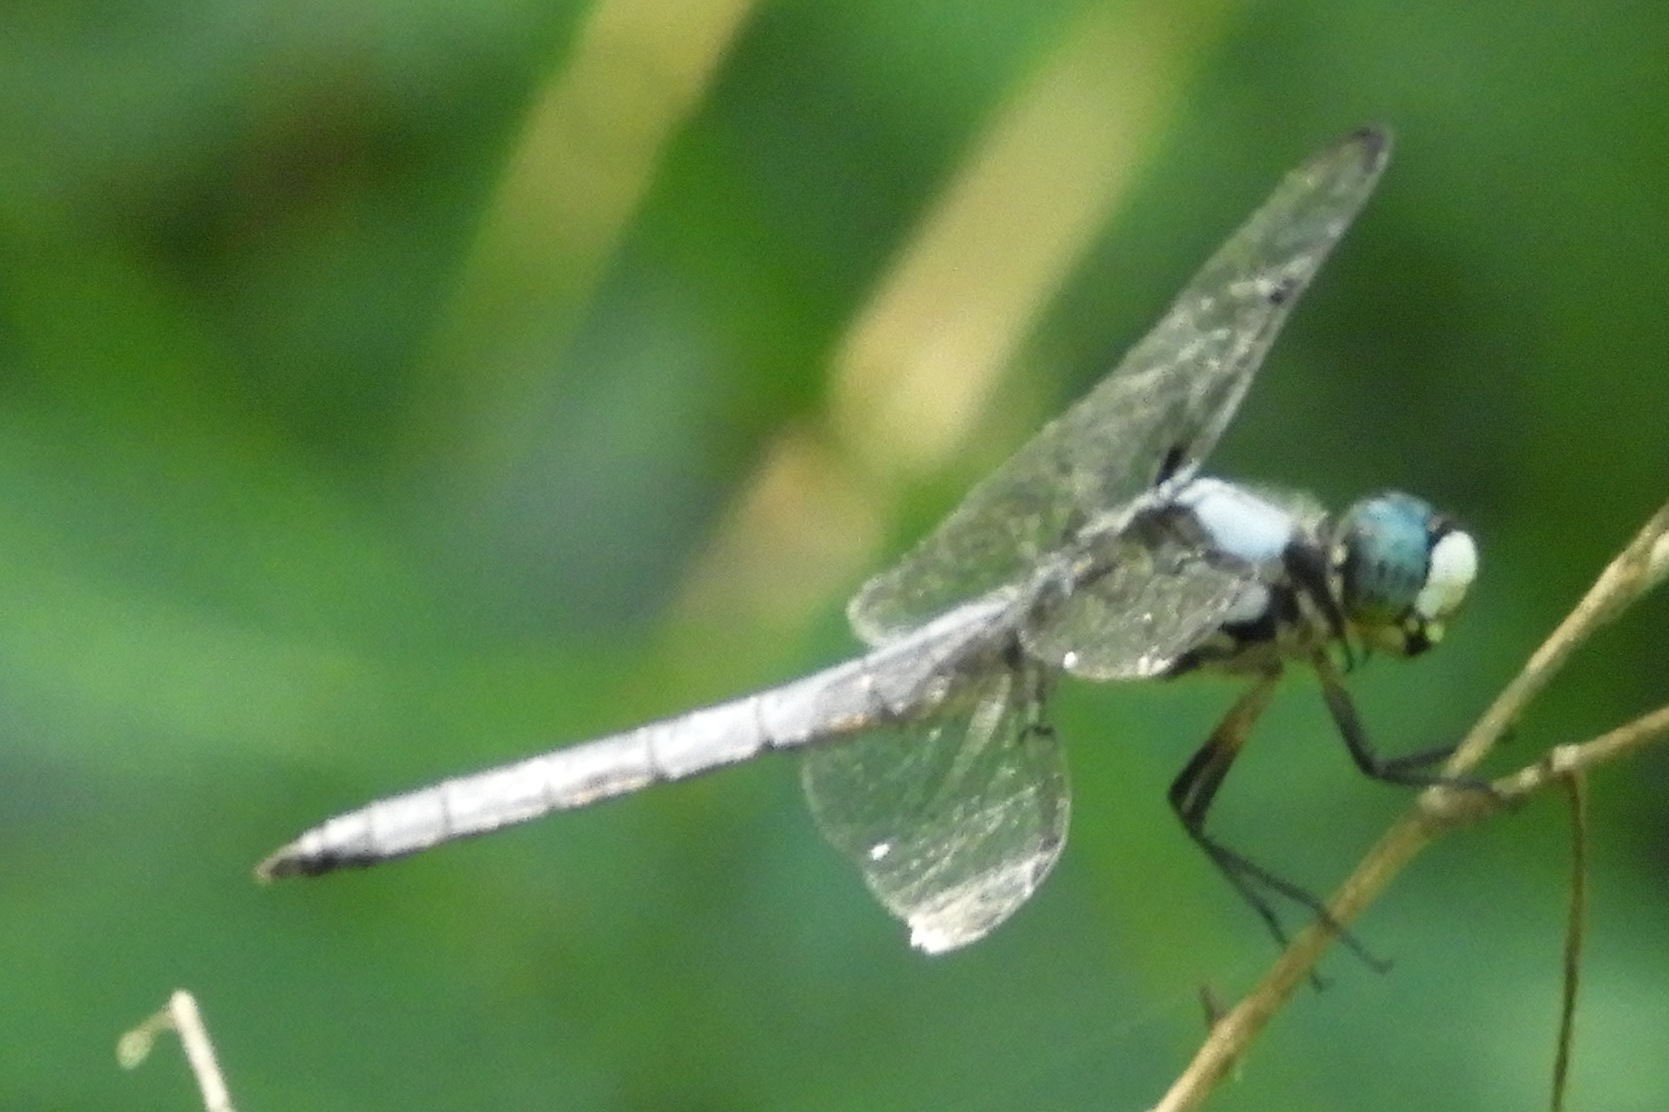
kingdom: Animalia
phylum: Arthropoda
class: Insecta
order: Odonata
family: Libellulidae
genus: Libellula
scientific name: Libellula vibrans
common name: Great blue skimmer
